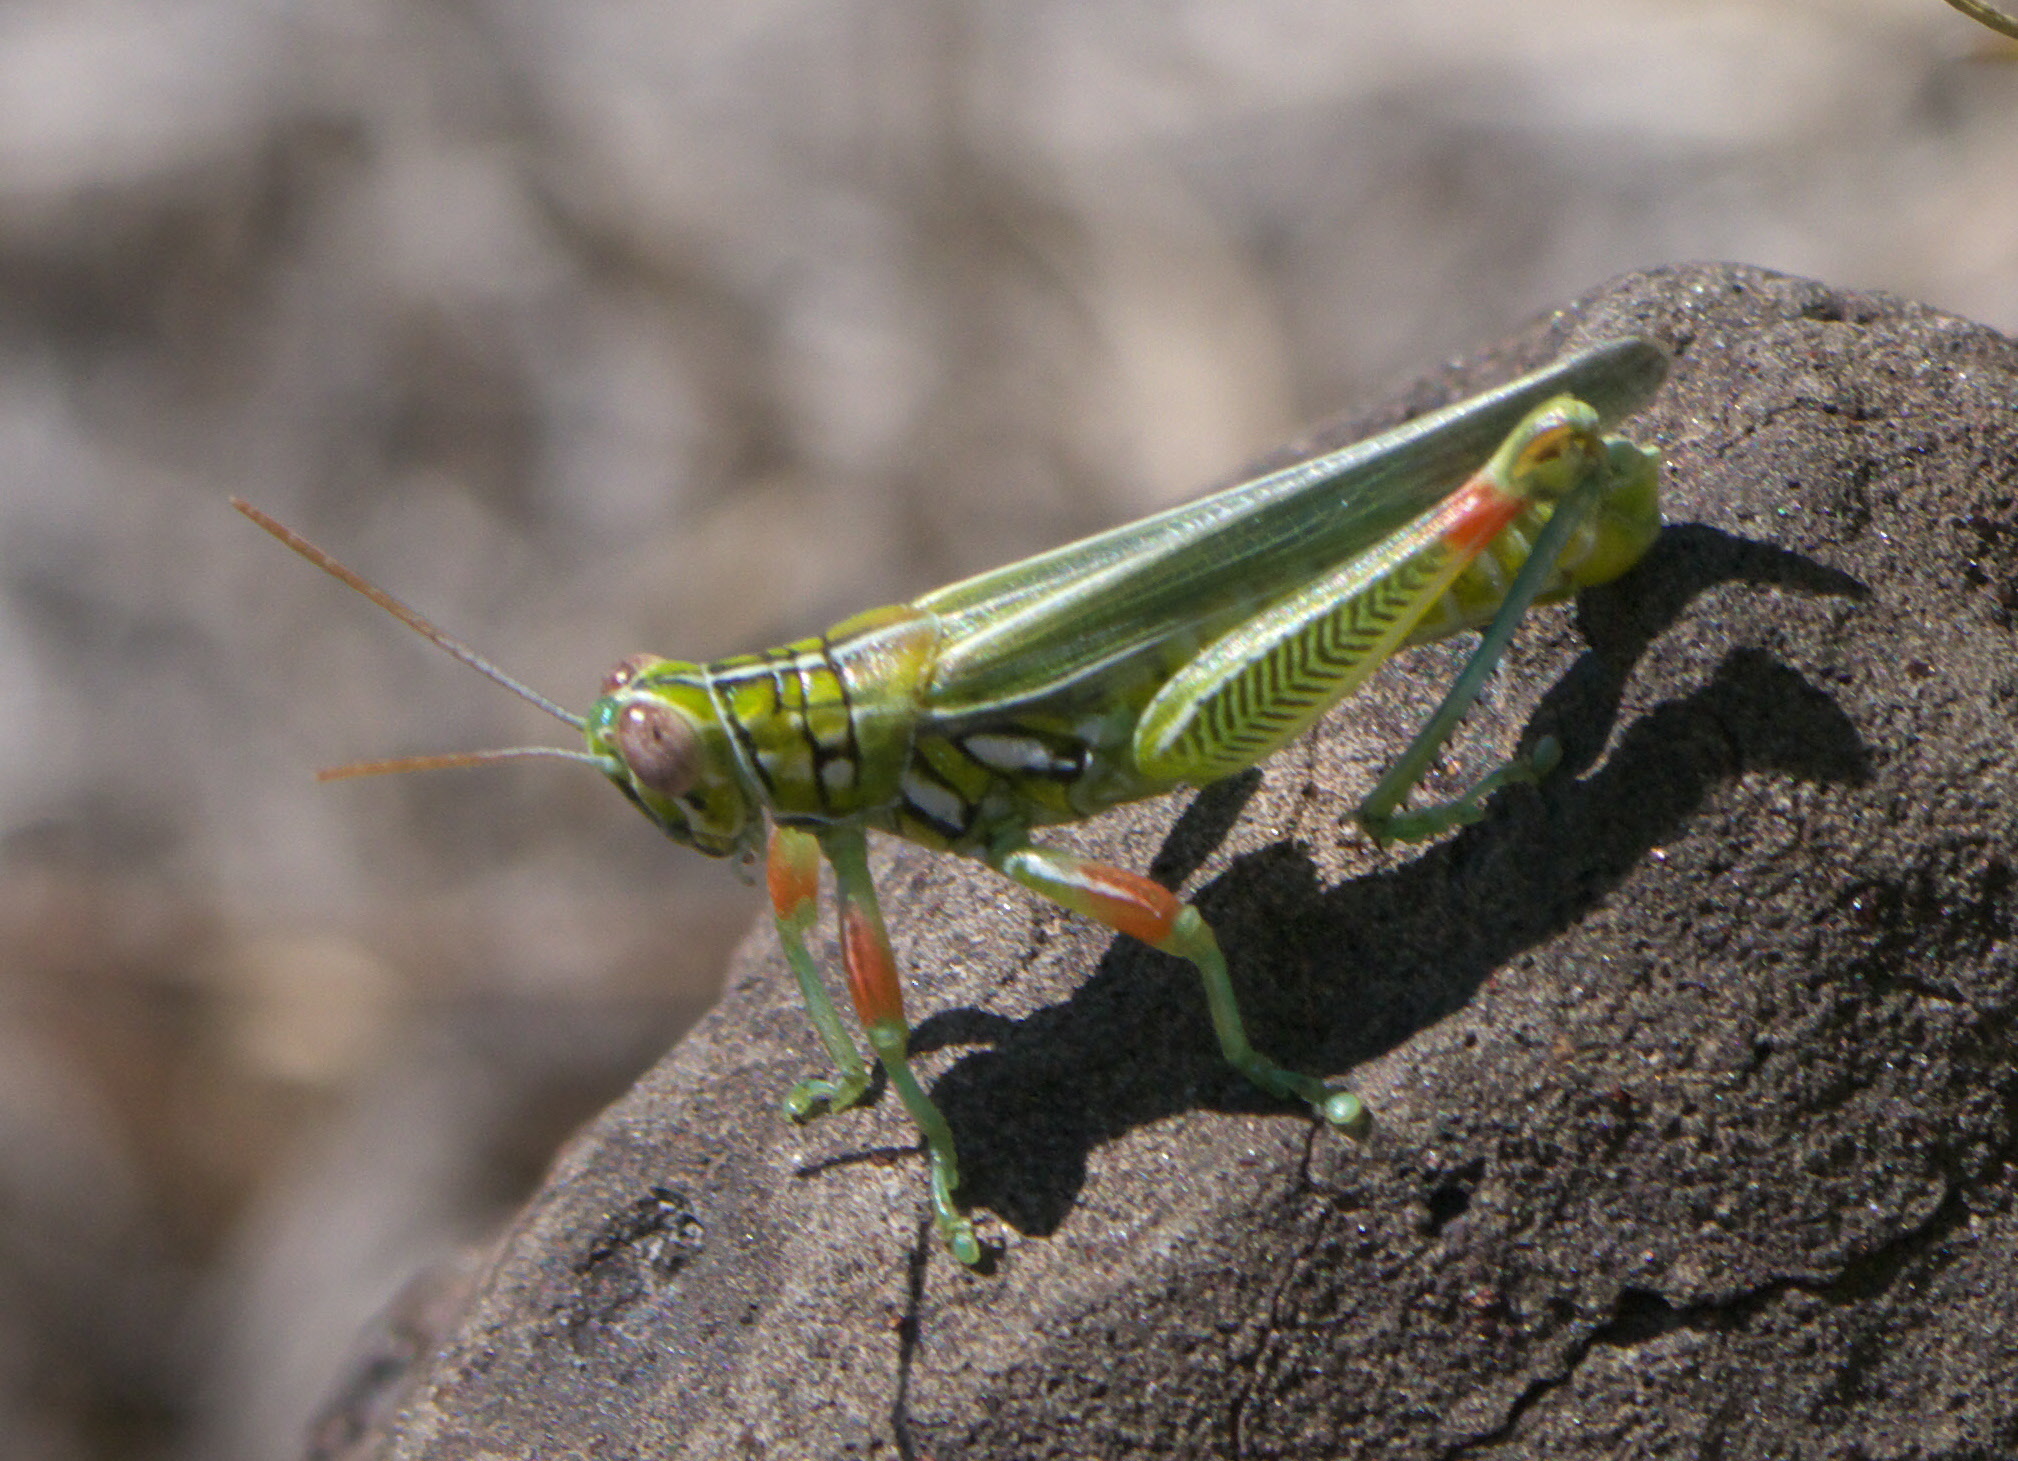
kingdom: Animalia
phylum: Arthropoda
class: Insecta
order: Orthoptera
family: Acrididae
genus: Hesperotettix
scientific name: Hesperotettix viridis
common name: Meadow purple-striped grasshopper
